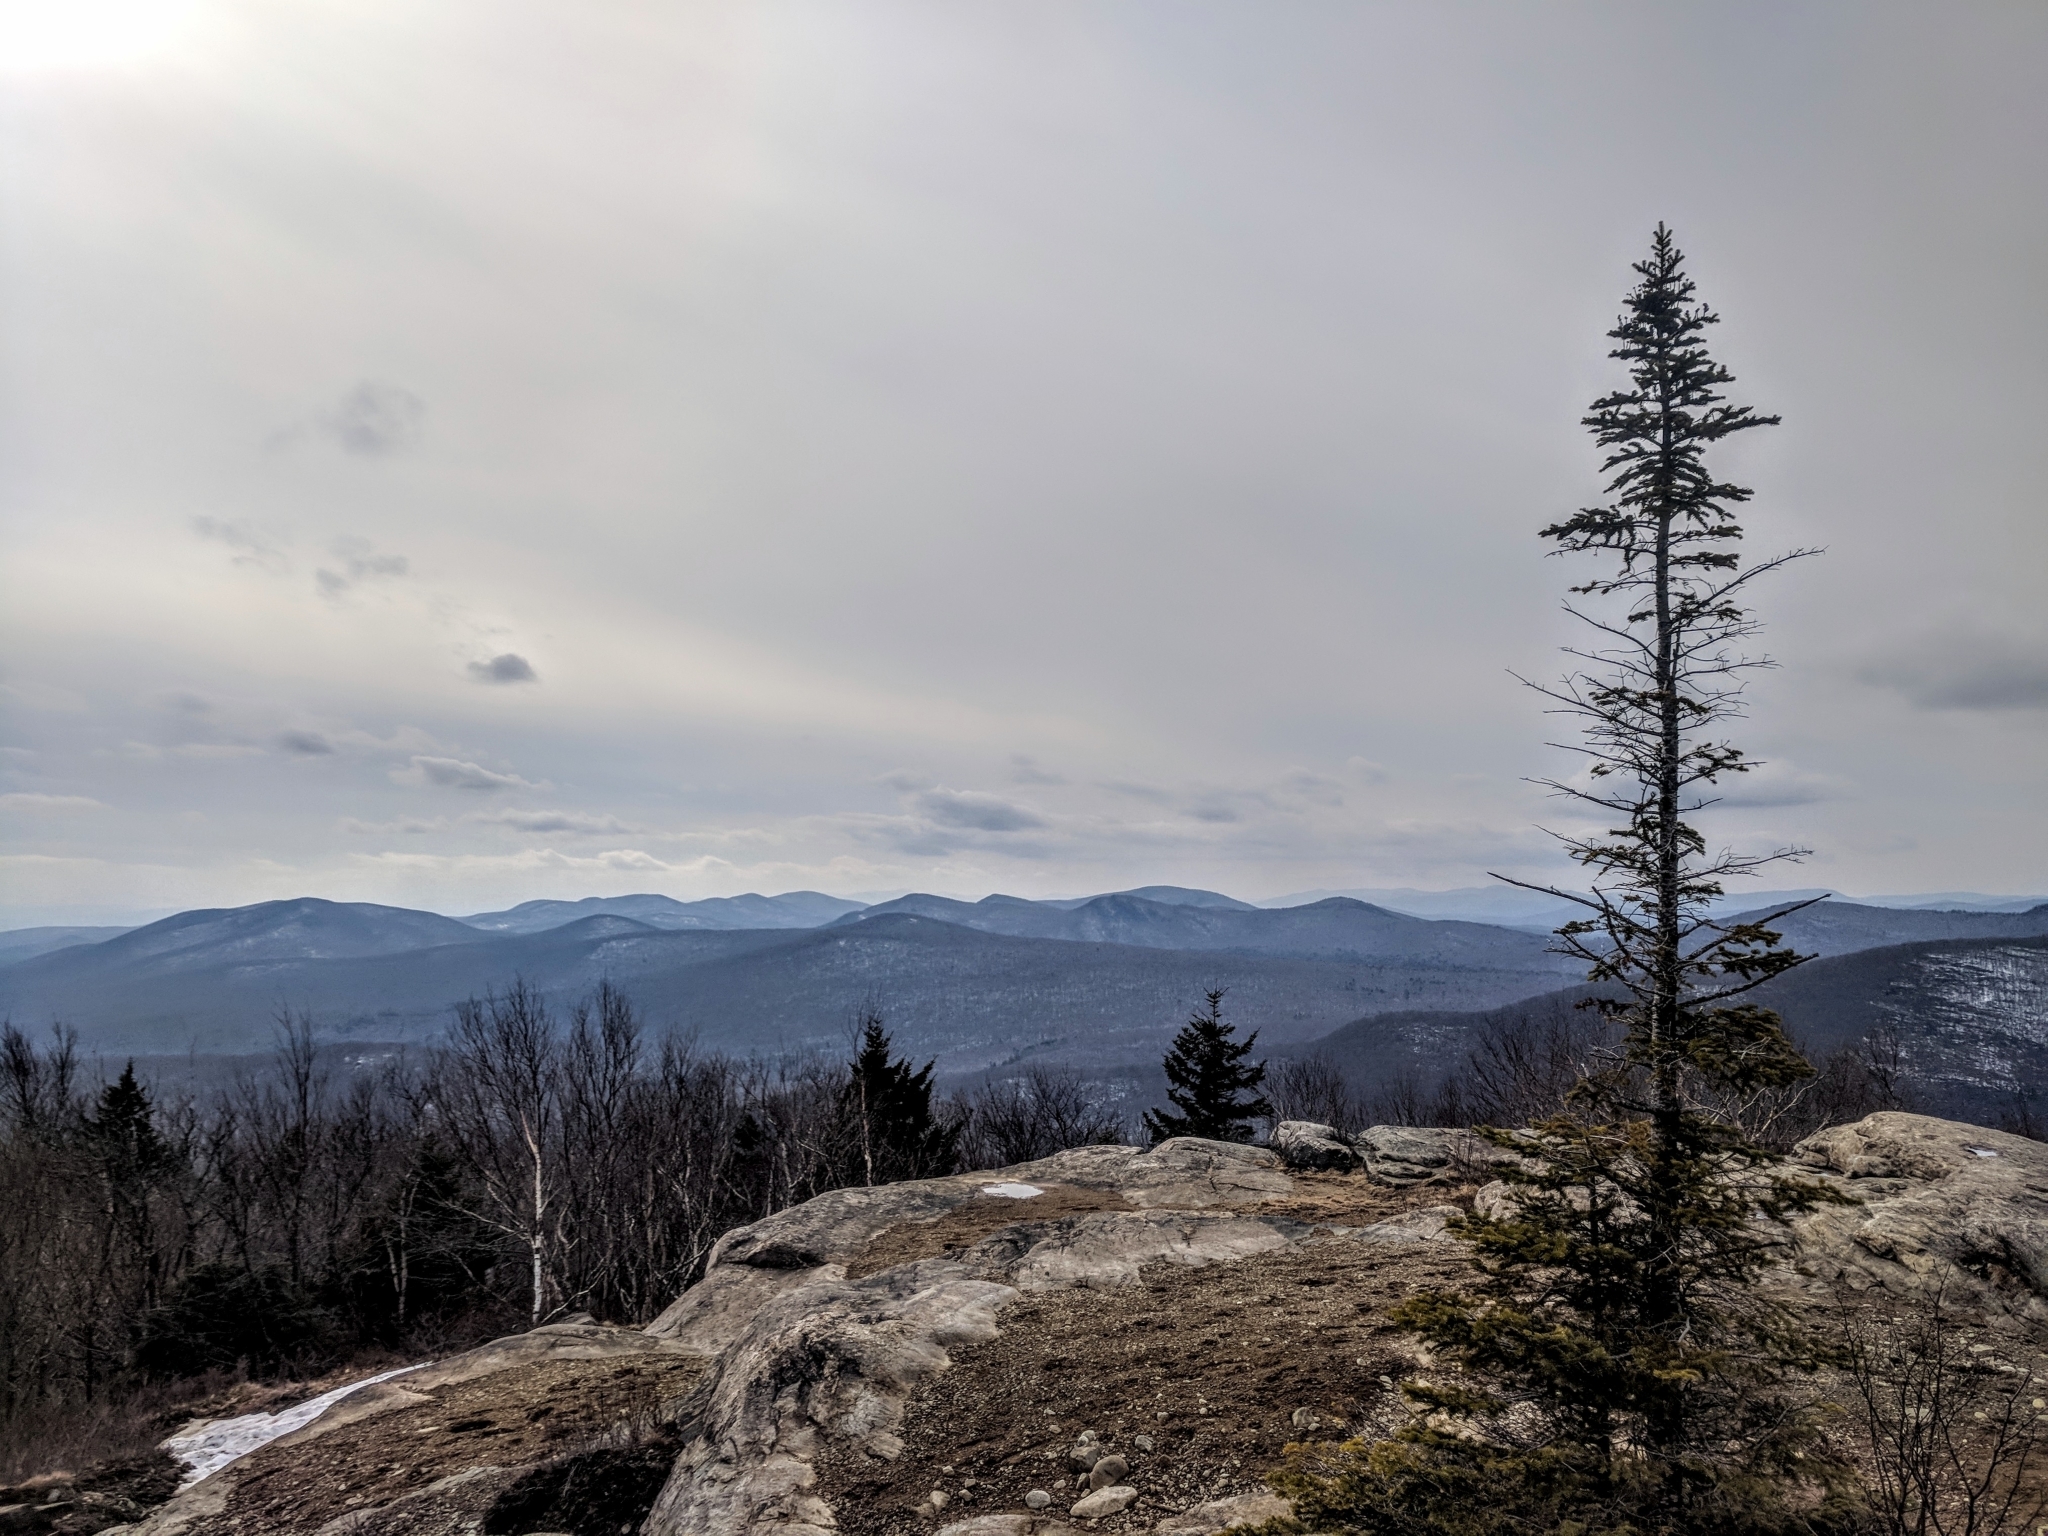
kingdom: Plantae
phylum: Tracheophyta
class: Pinopsida
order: Pinales
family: Pinaceae
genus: Abies
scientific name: Abies balsamea
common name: Balsam fir
